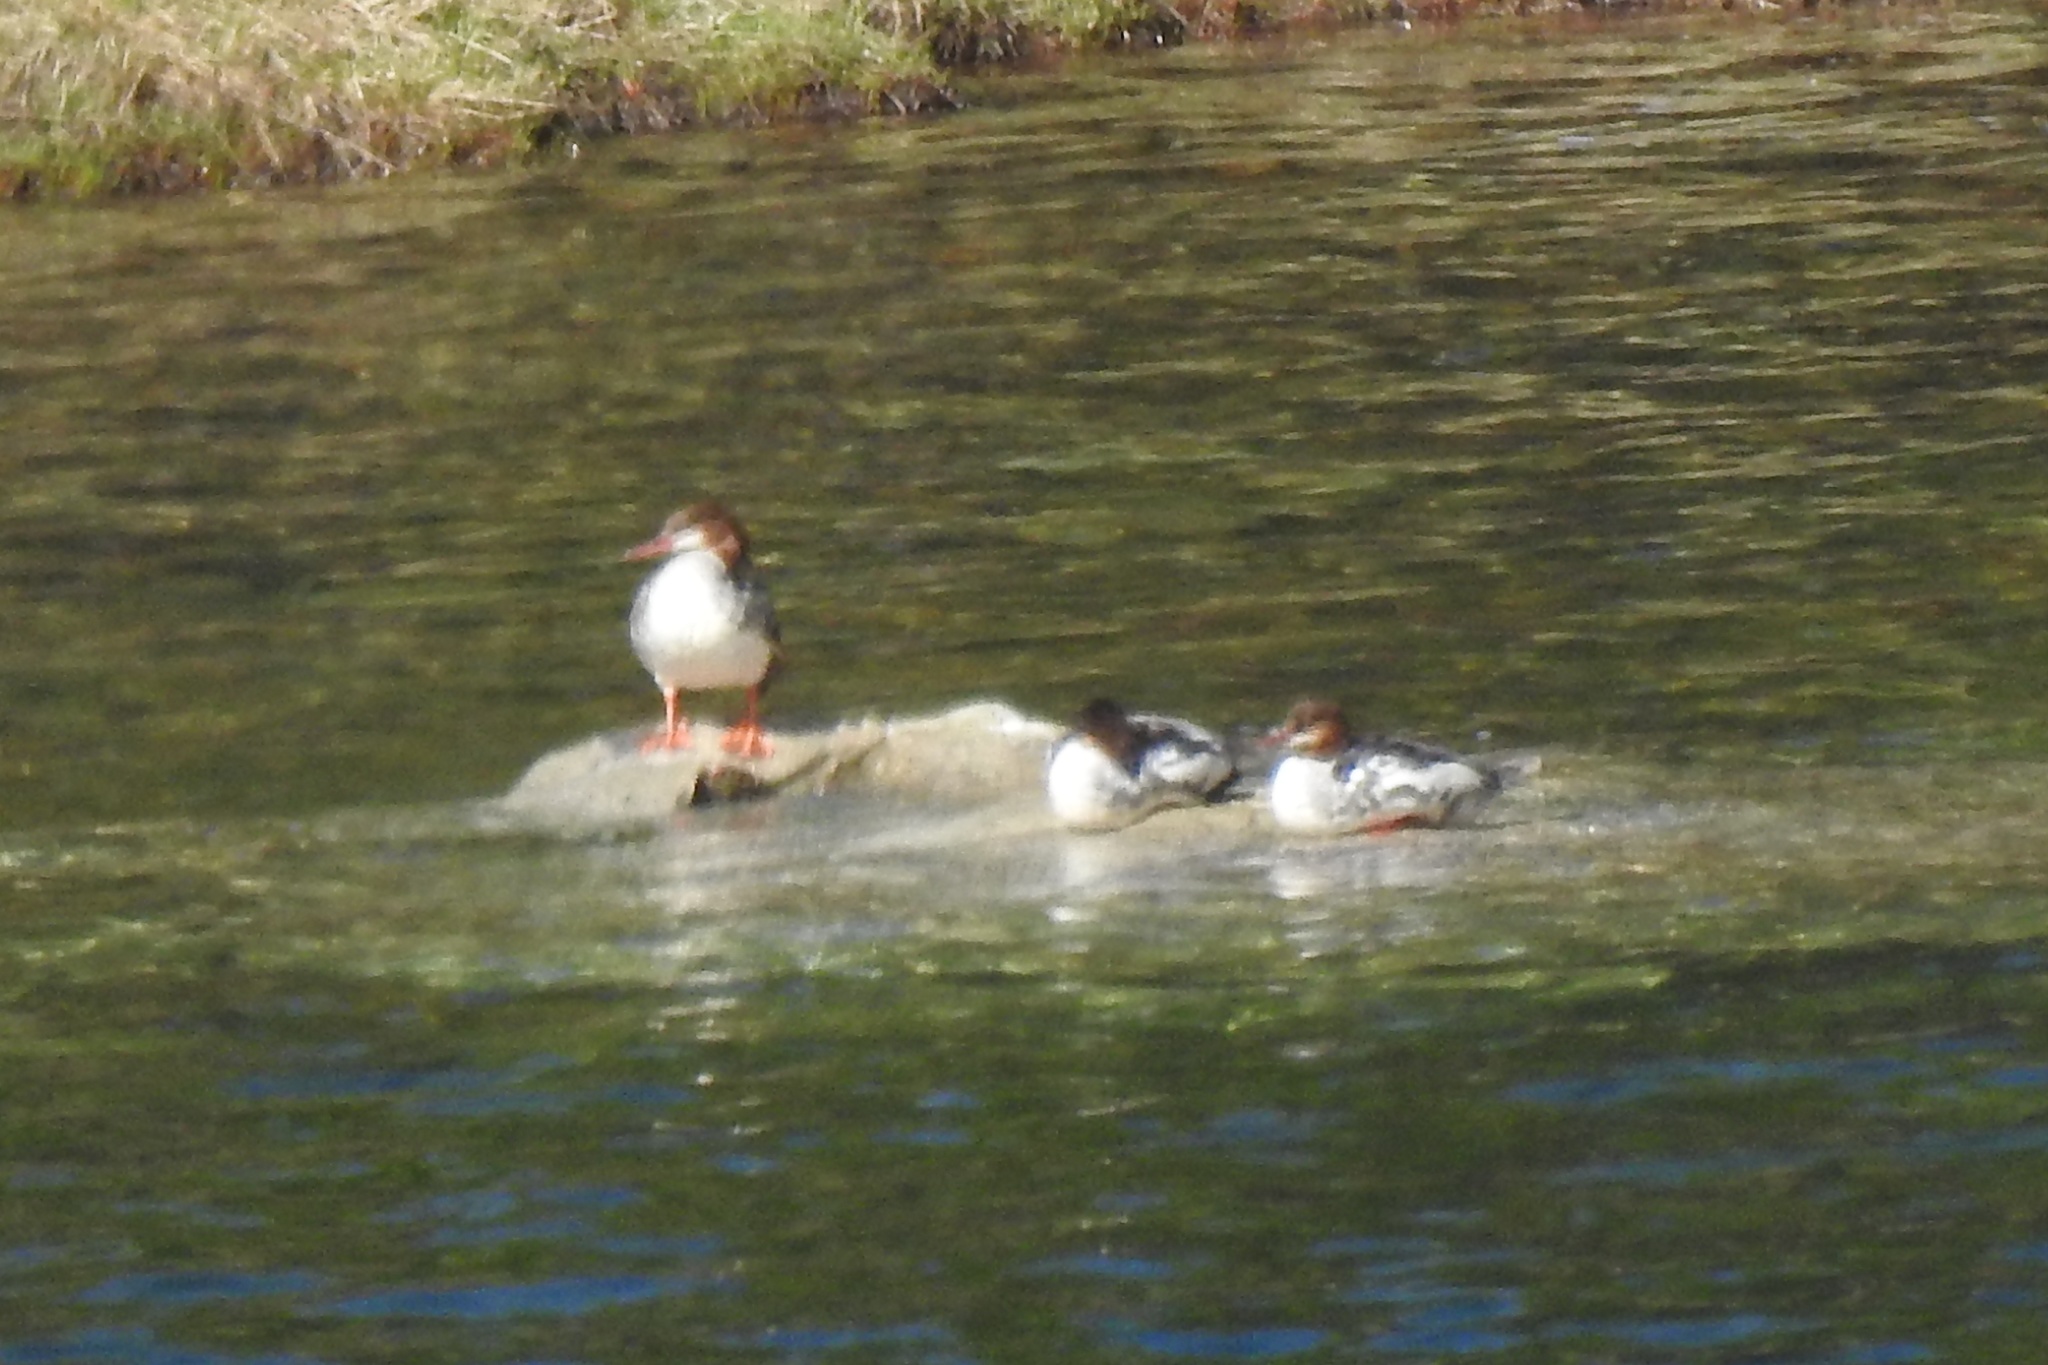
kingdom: Animalia
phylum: Chordata
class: Aves
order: Anseriformes
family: Anatidae
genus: Mergus
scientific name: Mergus merganser
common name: Common merganser
